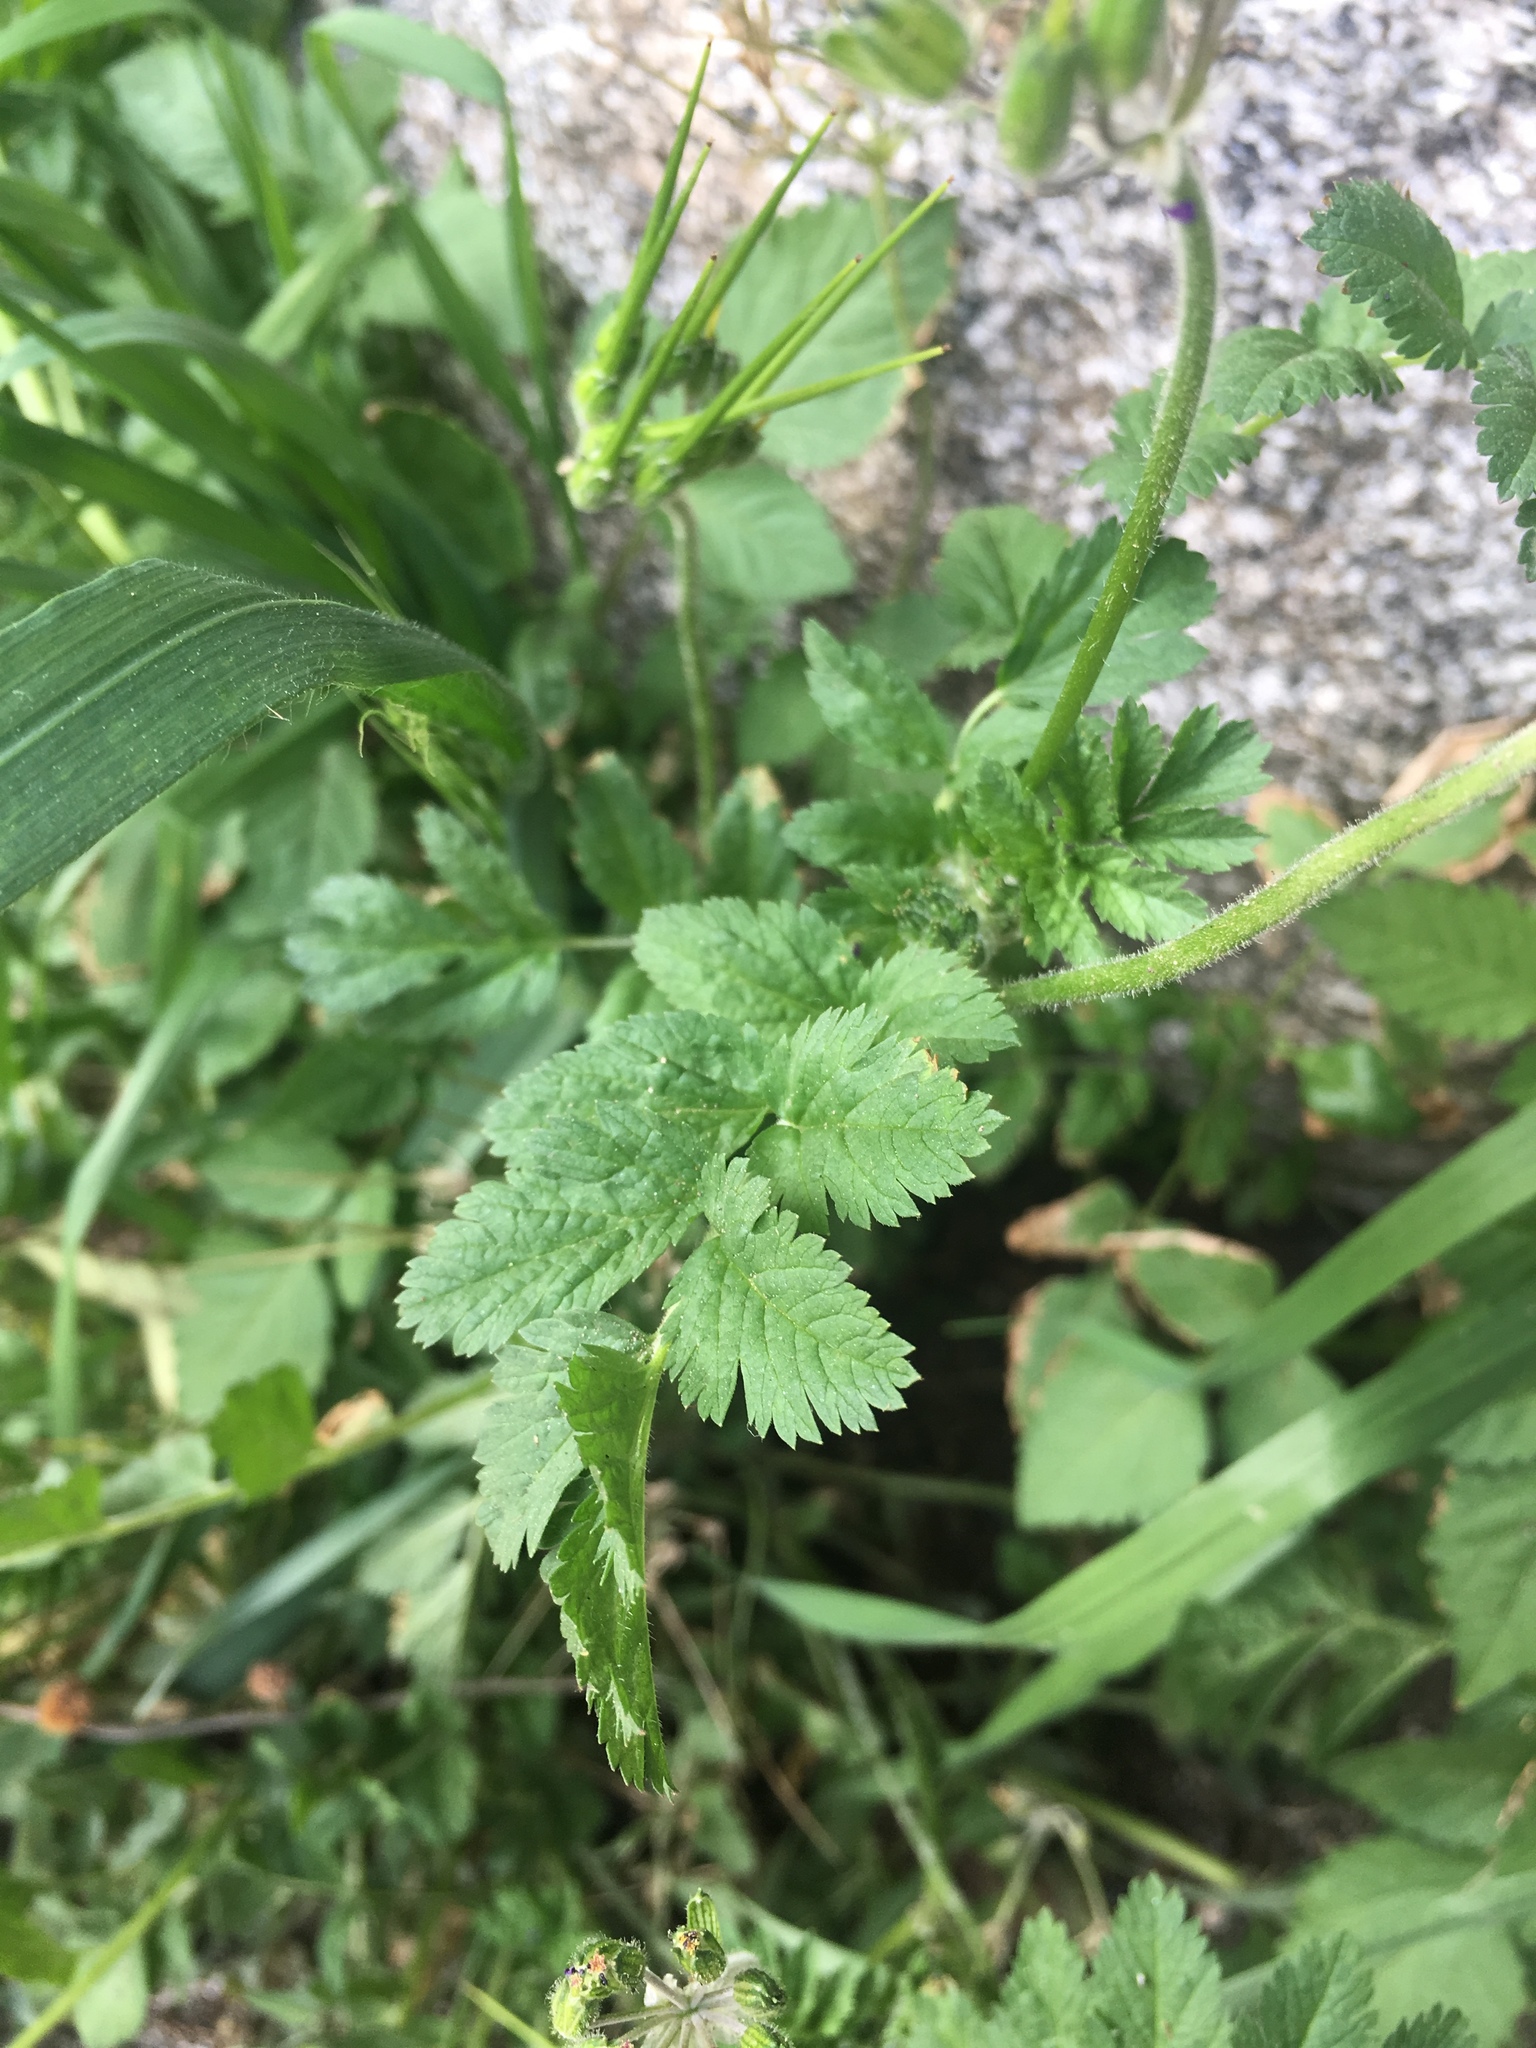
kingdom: Plantae
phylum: Tracheophyta
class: Magnoliopsida
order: Geraniales
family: Geraniaceae
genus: Erodium
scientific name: Erodium moschatum
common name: Musk stork's-bill
